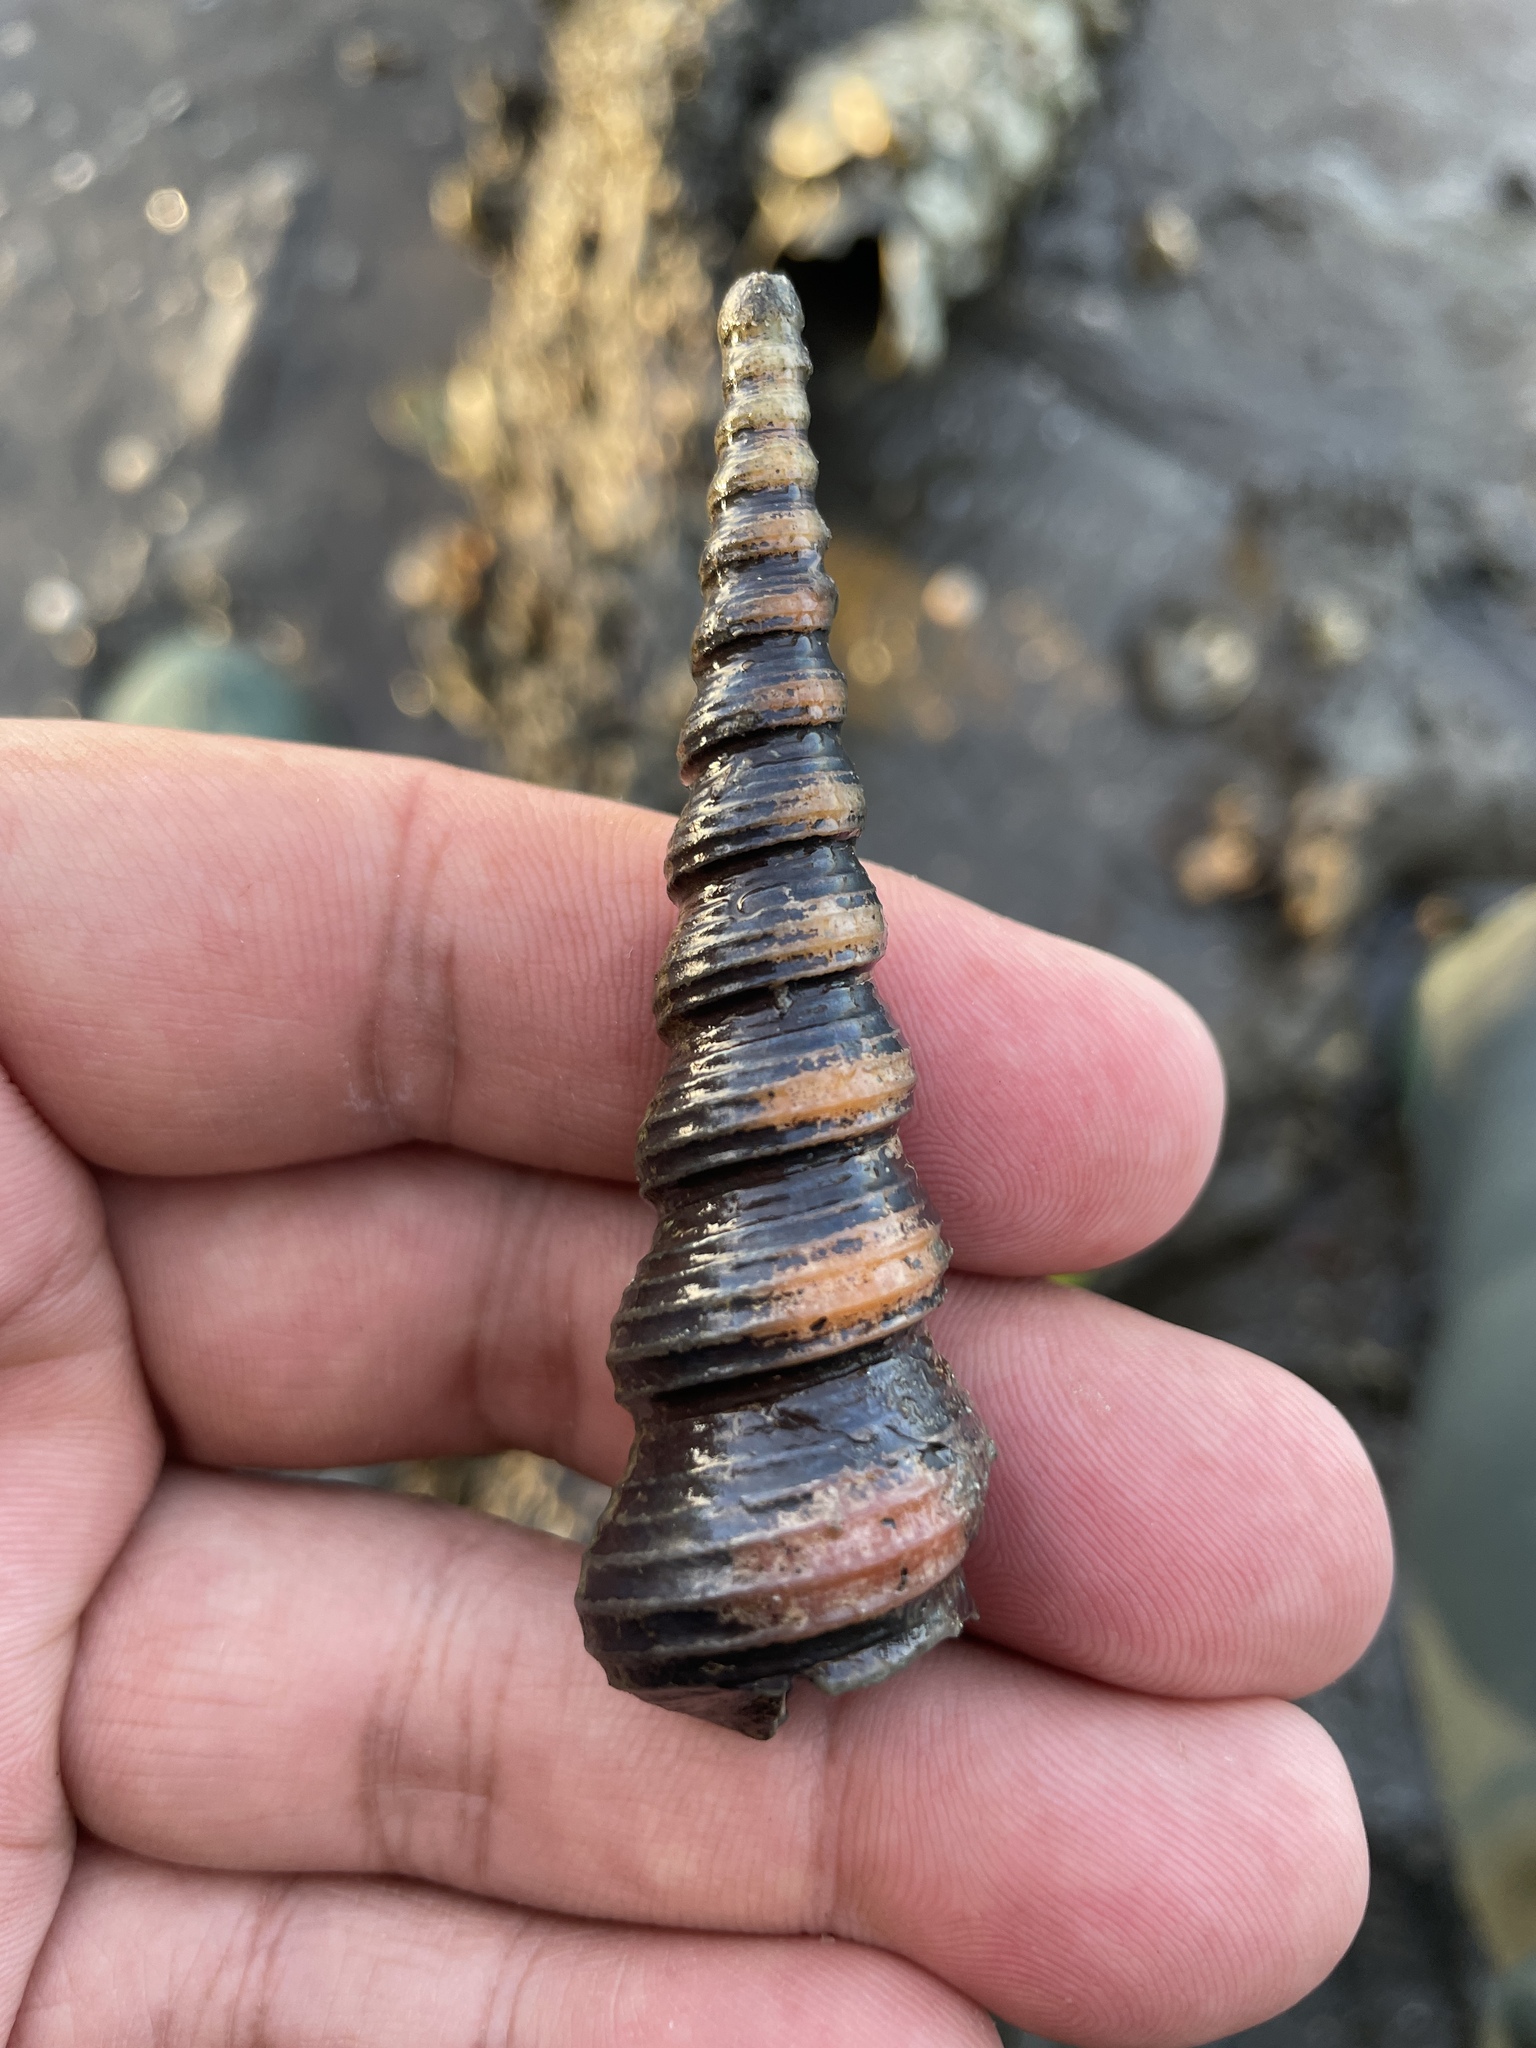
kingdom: Animalia
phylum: Mollusca
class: Gastropoda
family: Turritellidae
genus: Turritella
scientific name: Turritella terebra
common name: Auger screw shell
